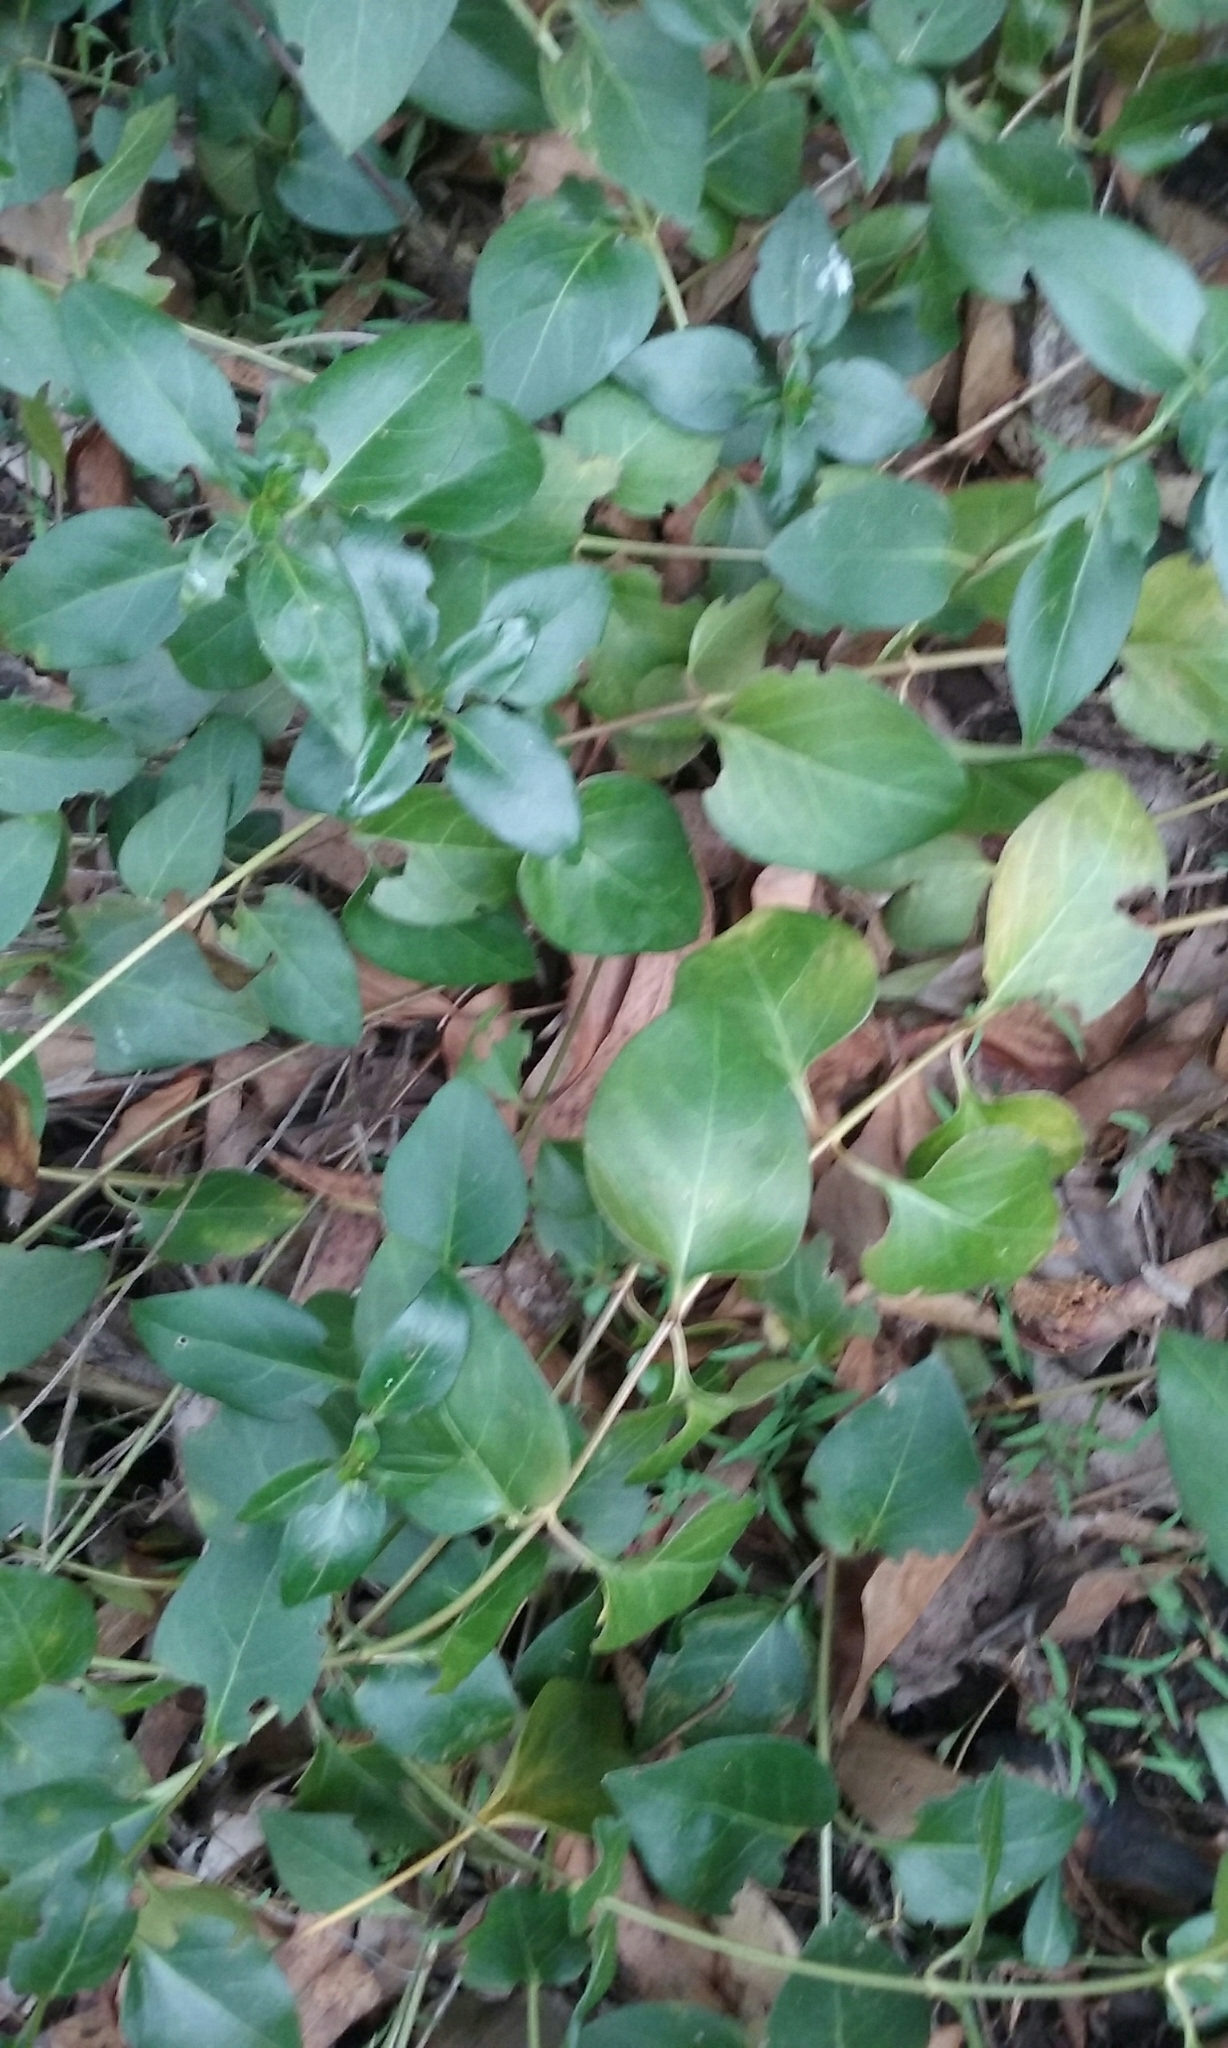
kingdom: Plantae
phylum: Tracheophyta
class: Magnoliopsida
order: Gentianales
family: Apocynaceae
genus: Vinca
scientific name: Vinca major
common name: Greater periwinkle
